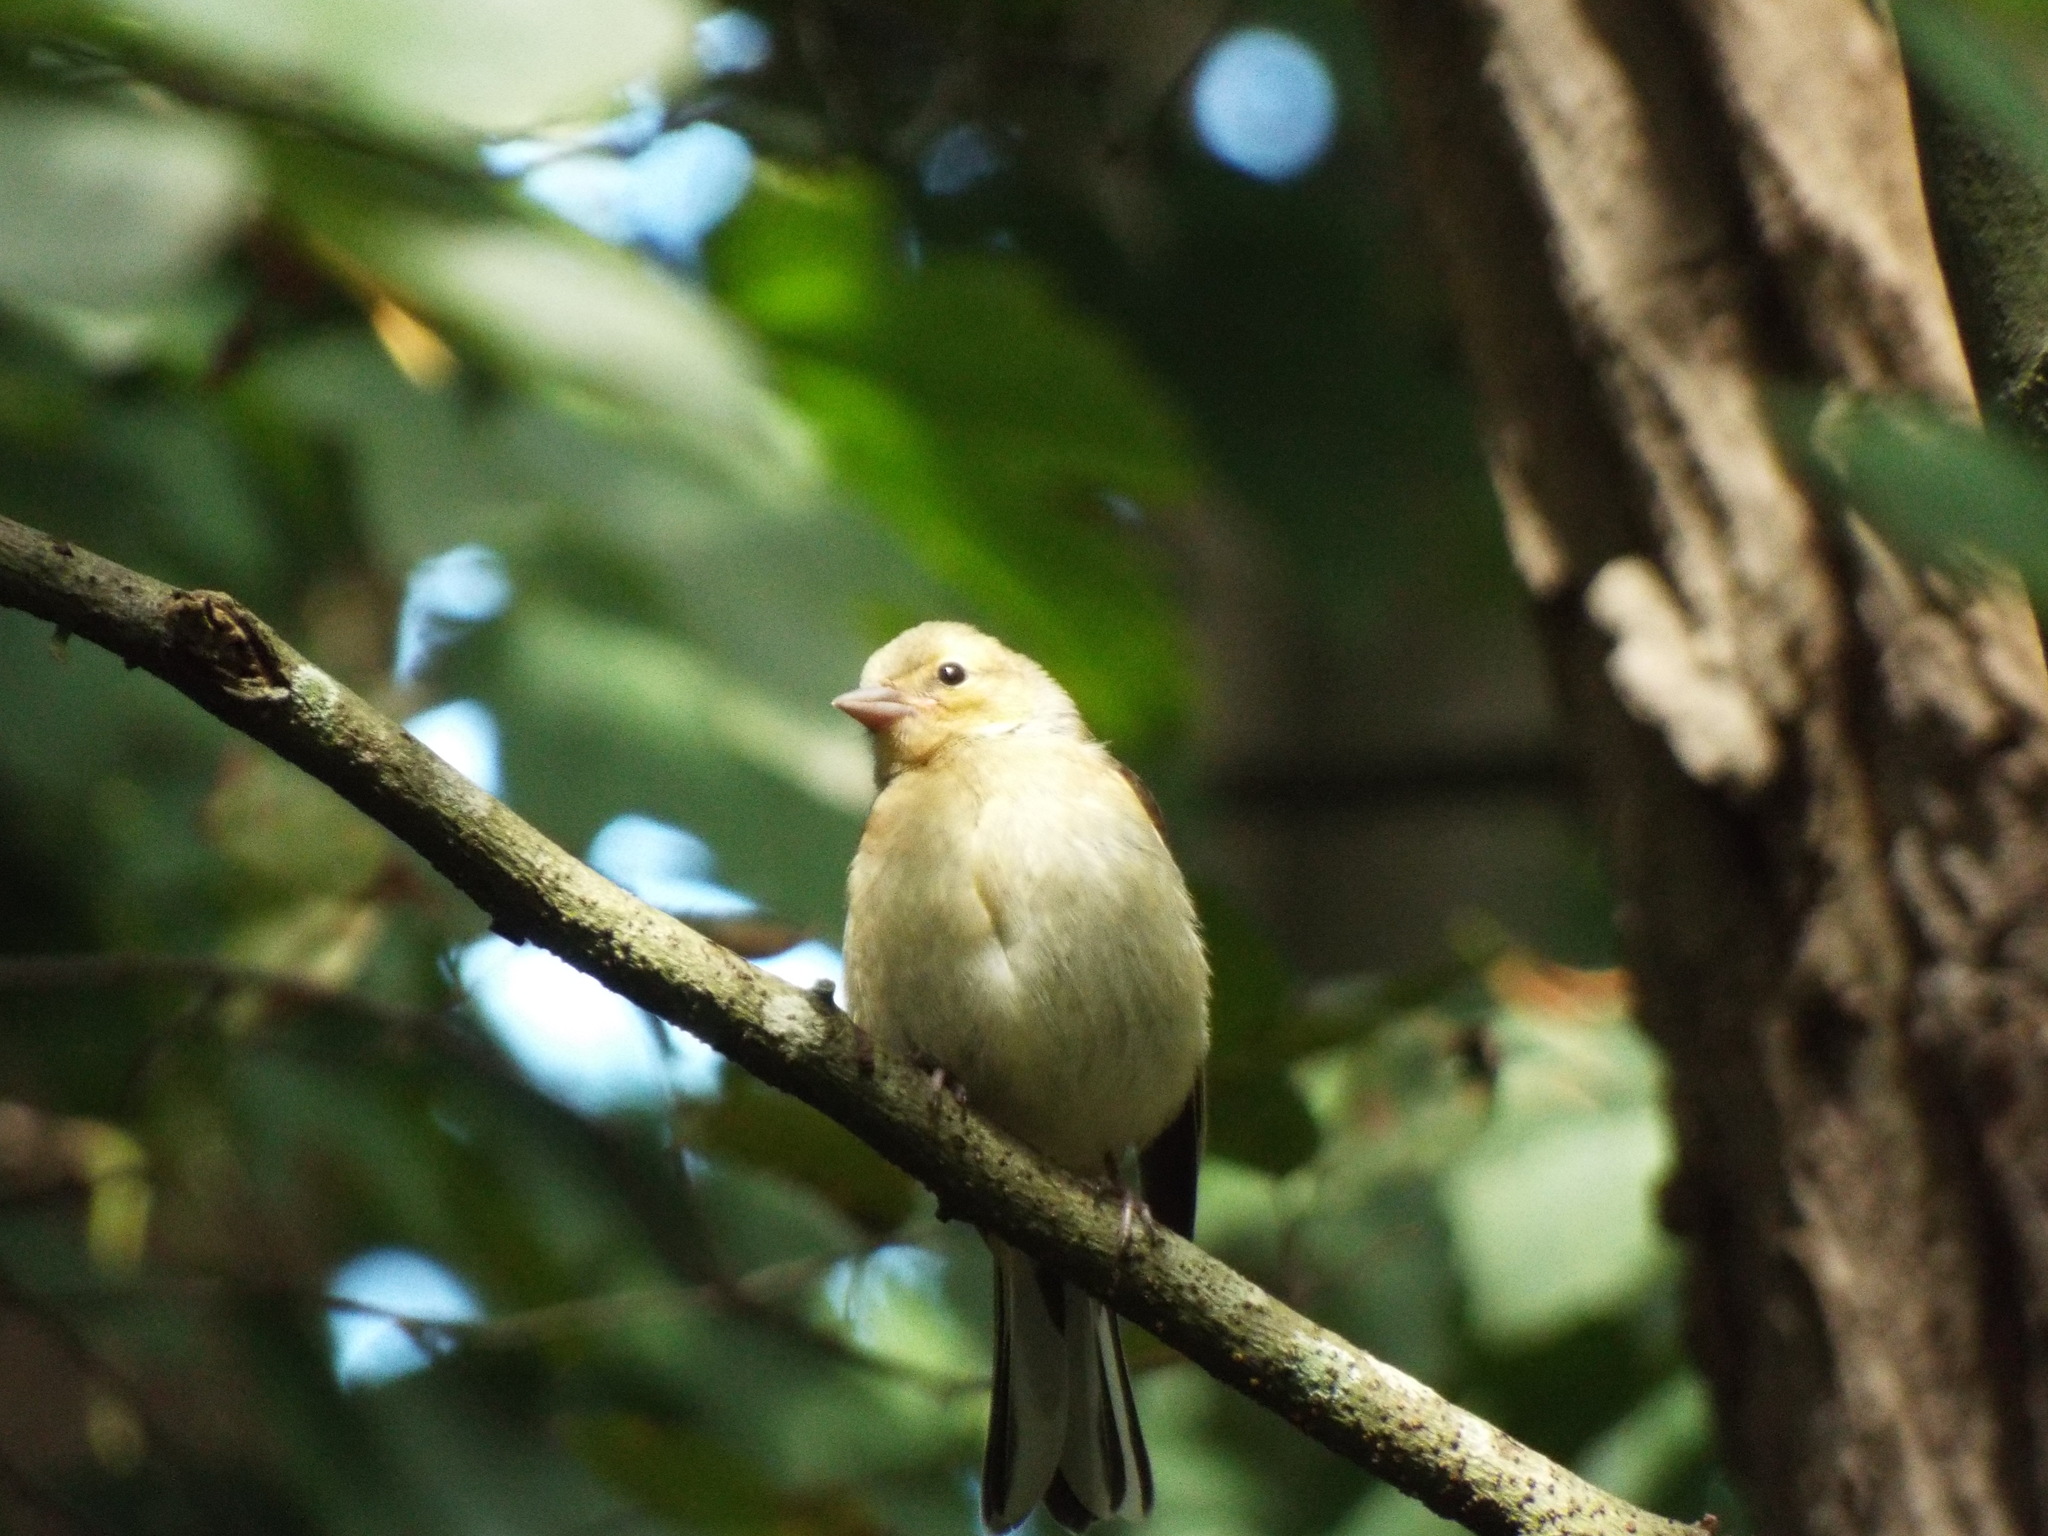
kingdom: Animalia
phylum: Chordata
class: Aves
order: Passeriformes
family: Fringillidae
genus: Fringilla
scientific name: Fringilla coelebs
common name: Common chaffinch
